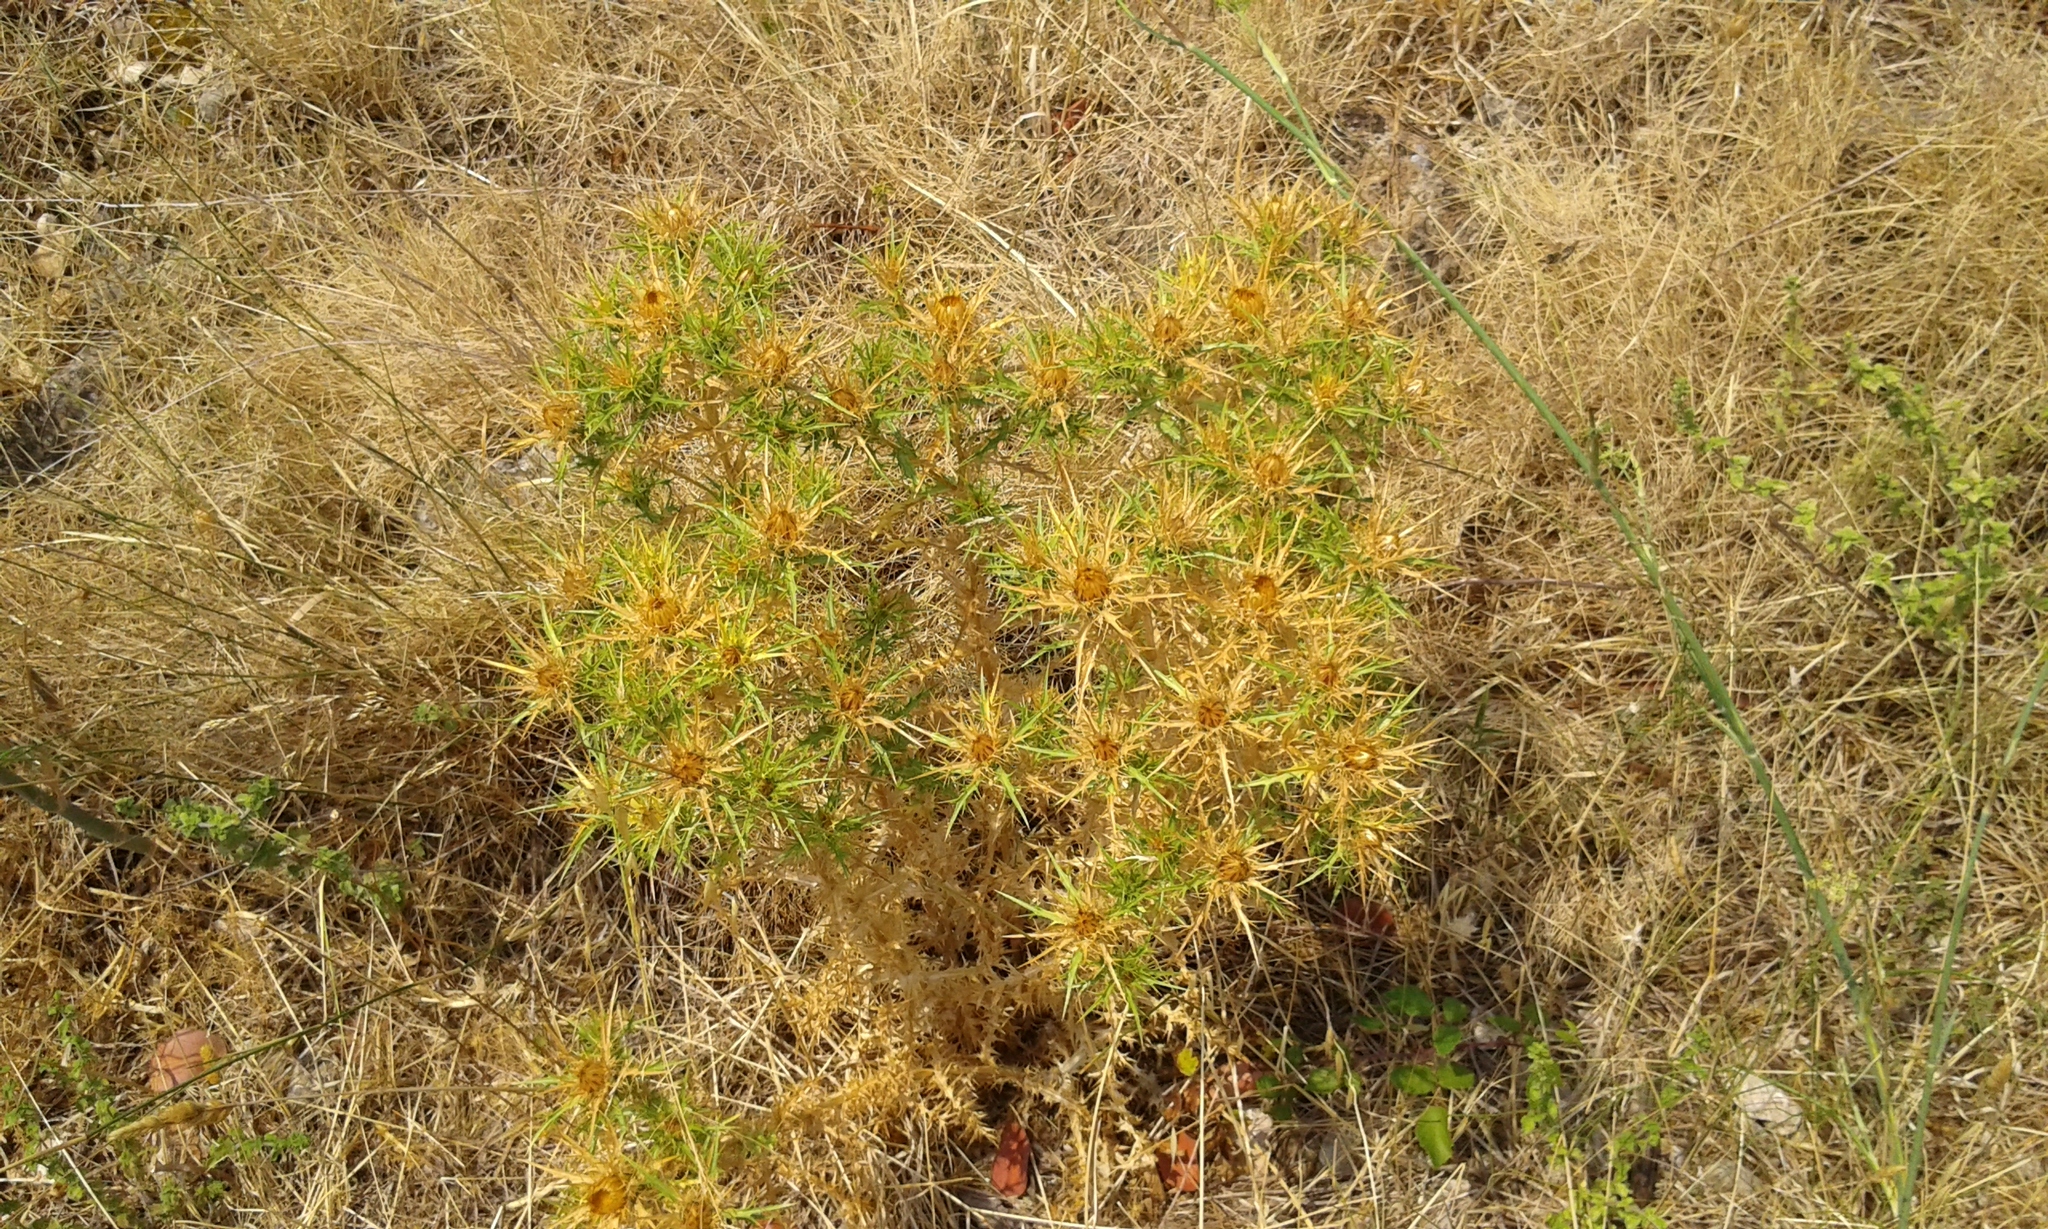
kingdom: Plantae
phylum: Tracheophyta
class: Magnoliopsida
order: Asterales
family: Asteraceae
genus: Carlina
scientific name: Carlina corymbosa
